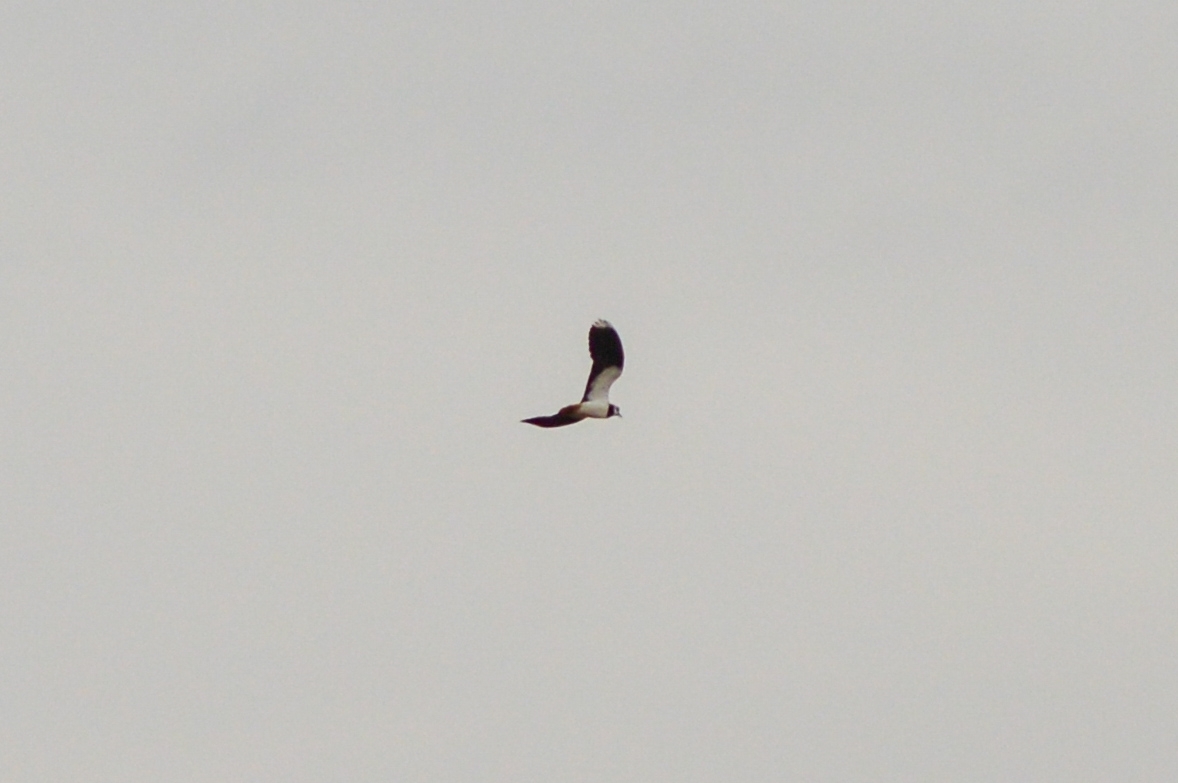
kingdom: Animalia
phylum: Chordata
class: Aves
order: Charadriiformes
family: Charadriidae
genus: Vanellus
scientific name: Vanellus vanellus
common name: Northern lapwing
